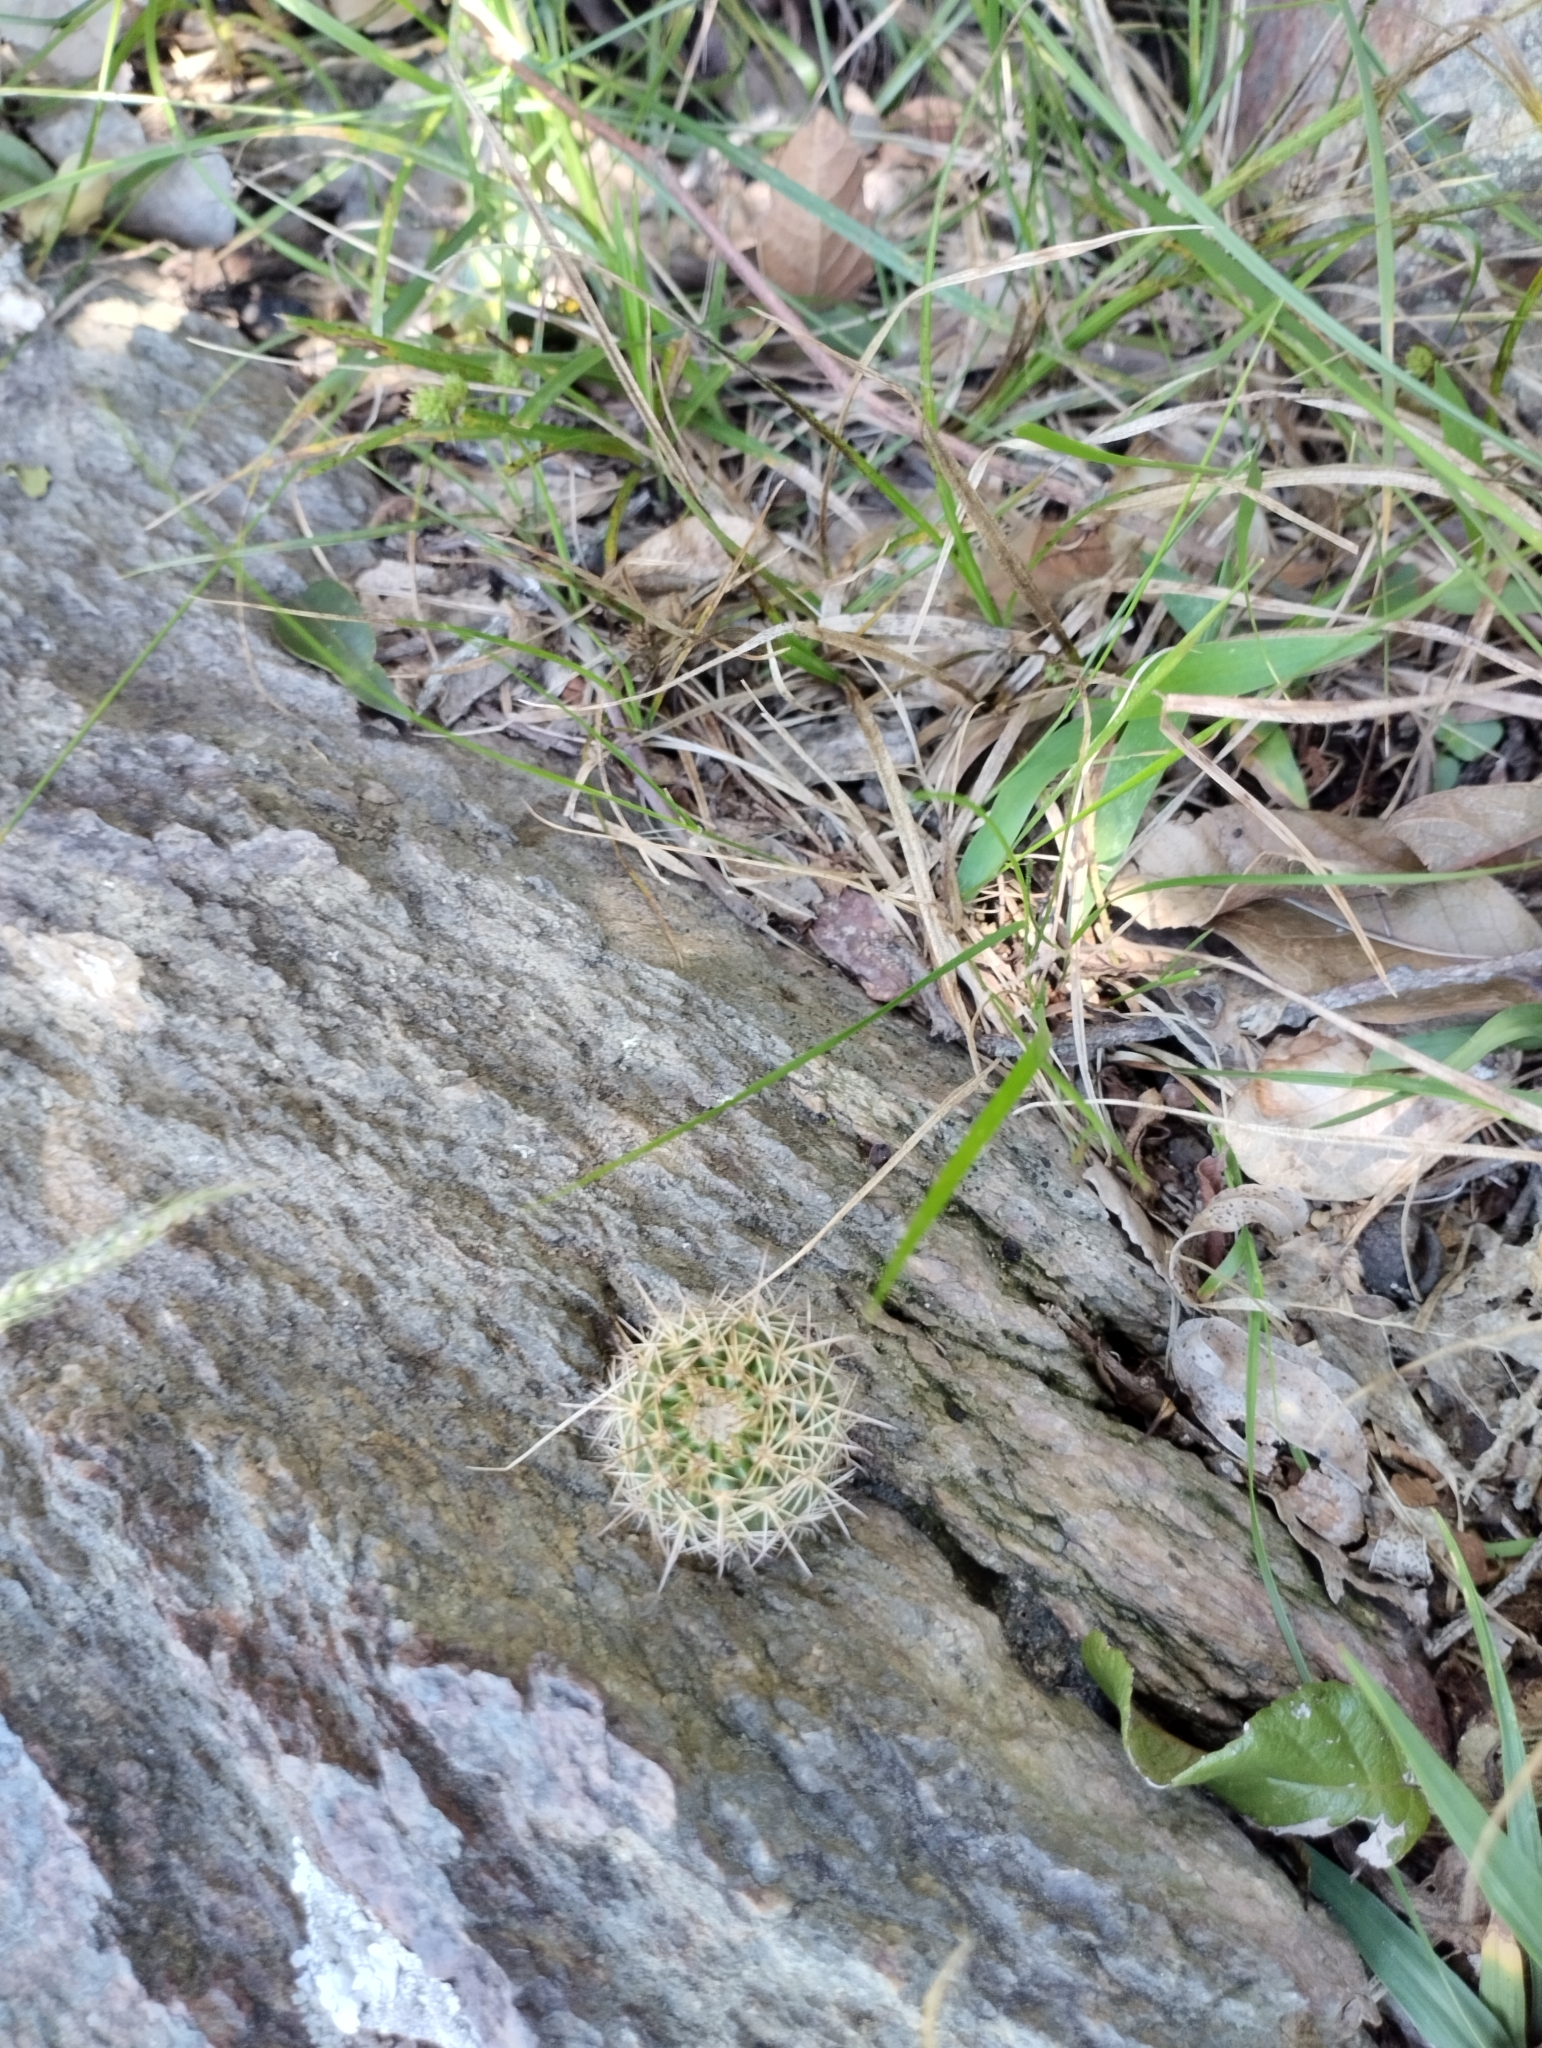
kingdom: Plantae
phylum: Tracheophyta
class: Magnoliopsida
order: Caryophyllales
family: Cactaceae
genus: Parodia
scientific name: Parodia erinacea
